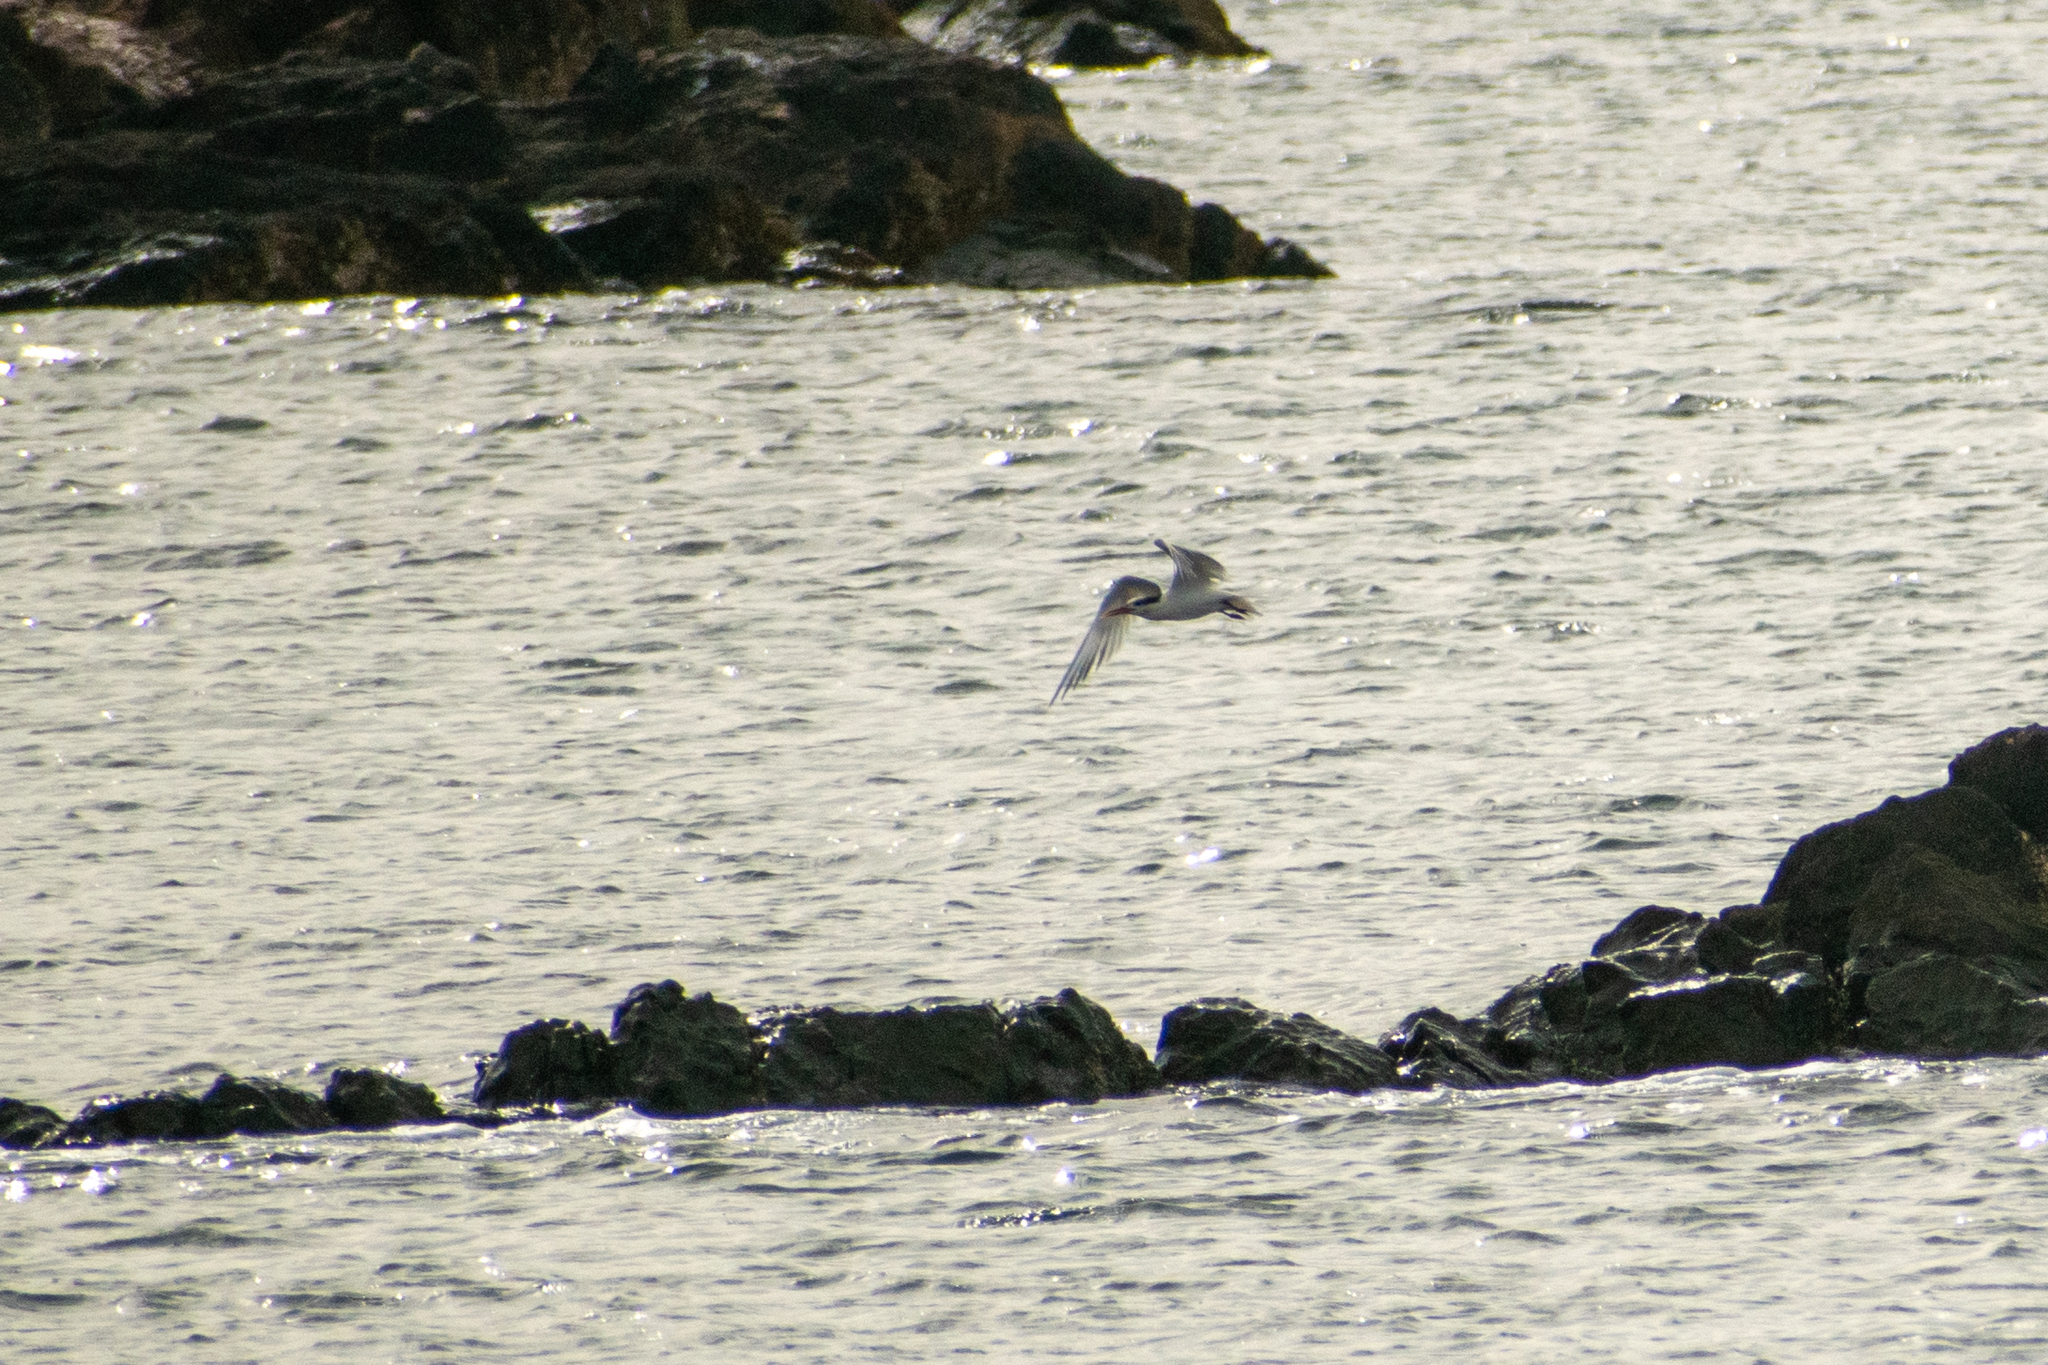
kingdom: Animalia
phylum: Chordata
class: Aves
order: Charadriiformes
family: Laridae
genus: Thalasseus
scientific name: Thalasseus maximus
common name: Royal tern
